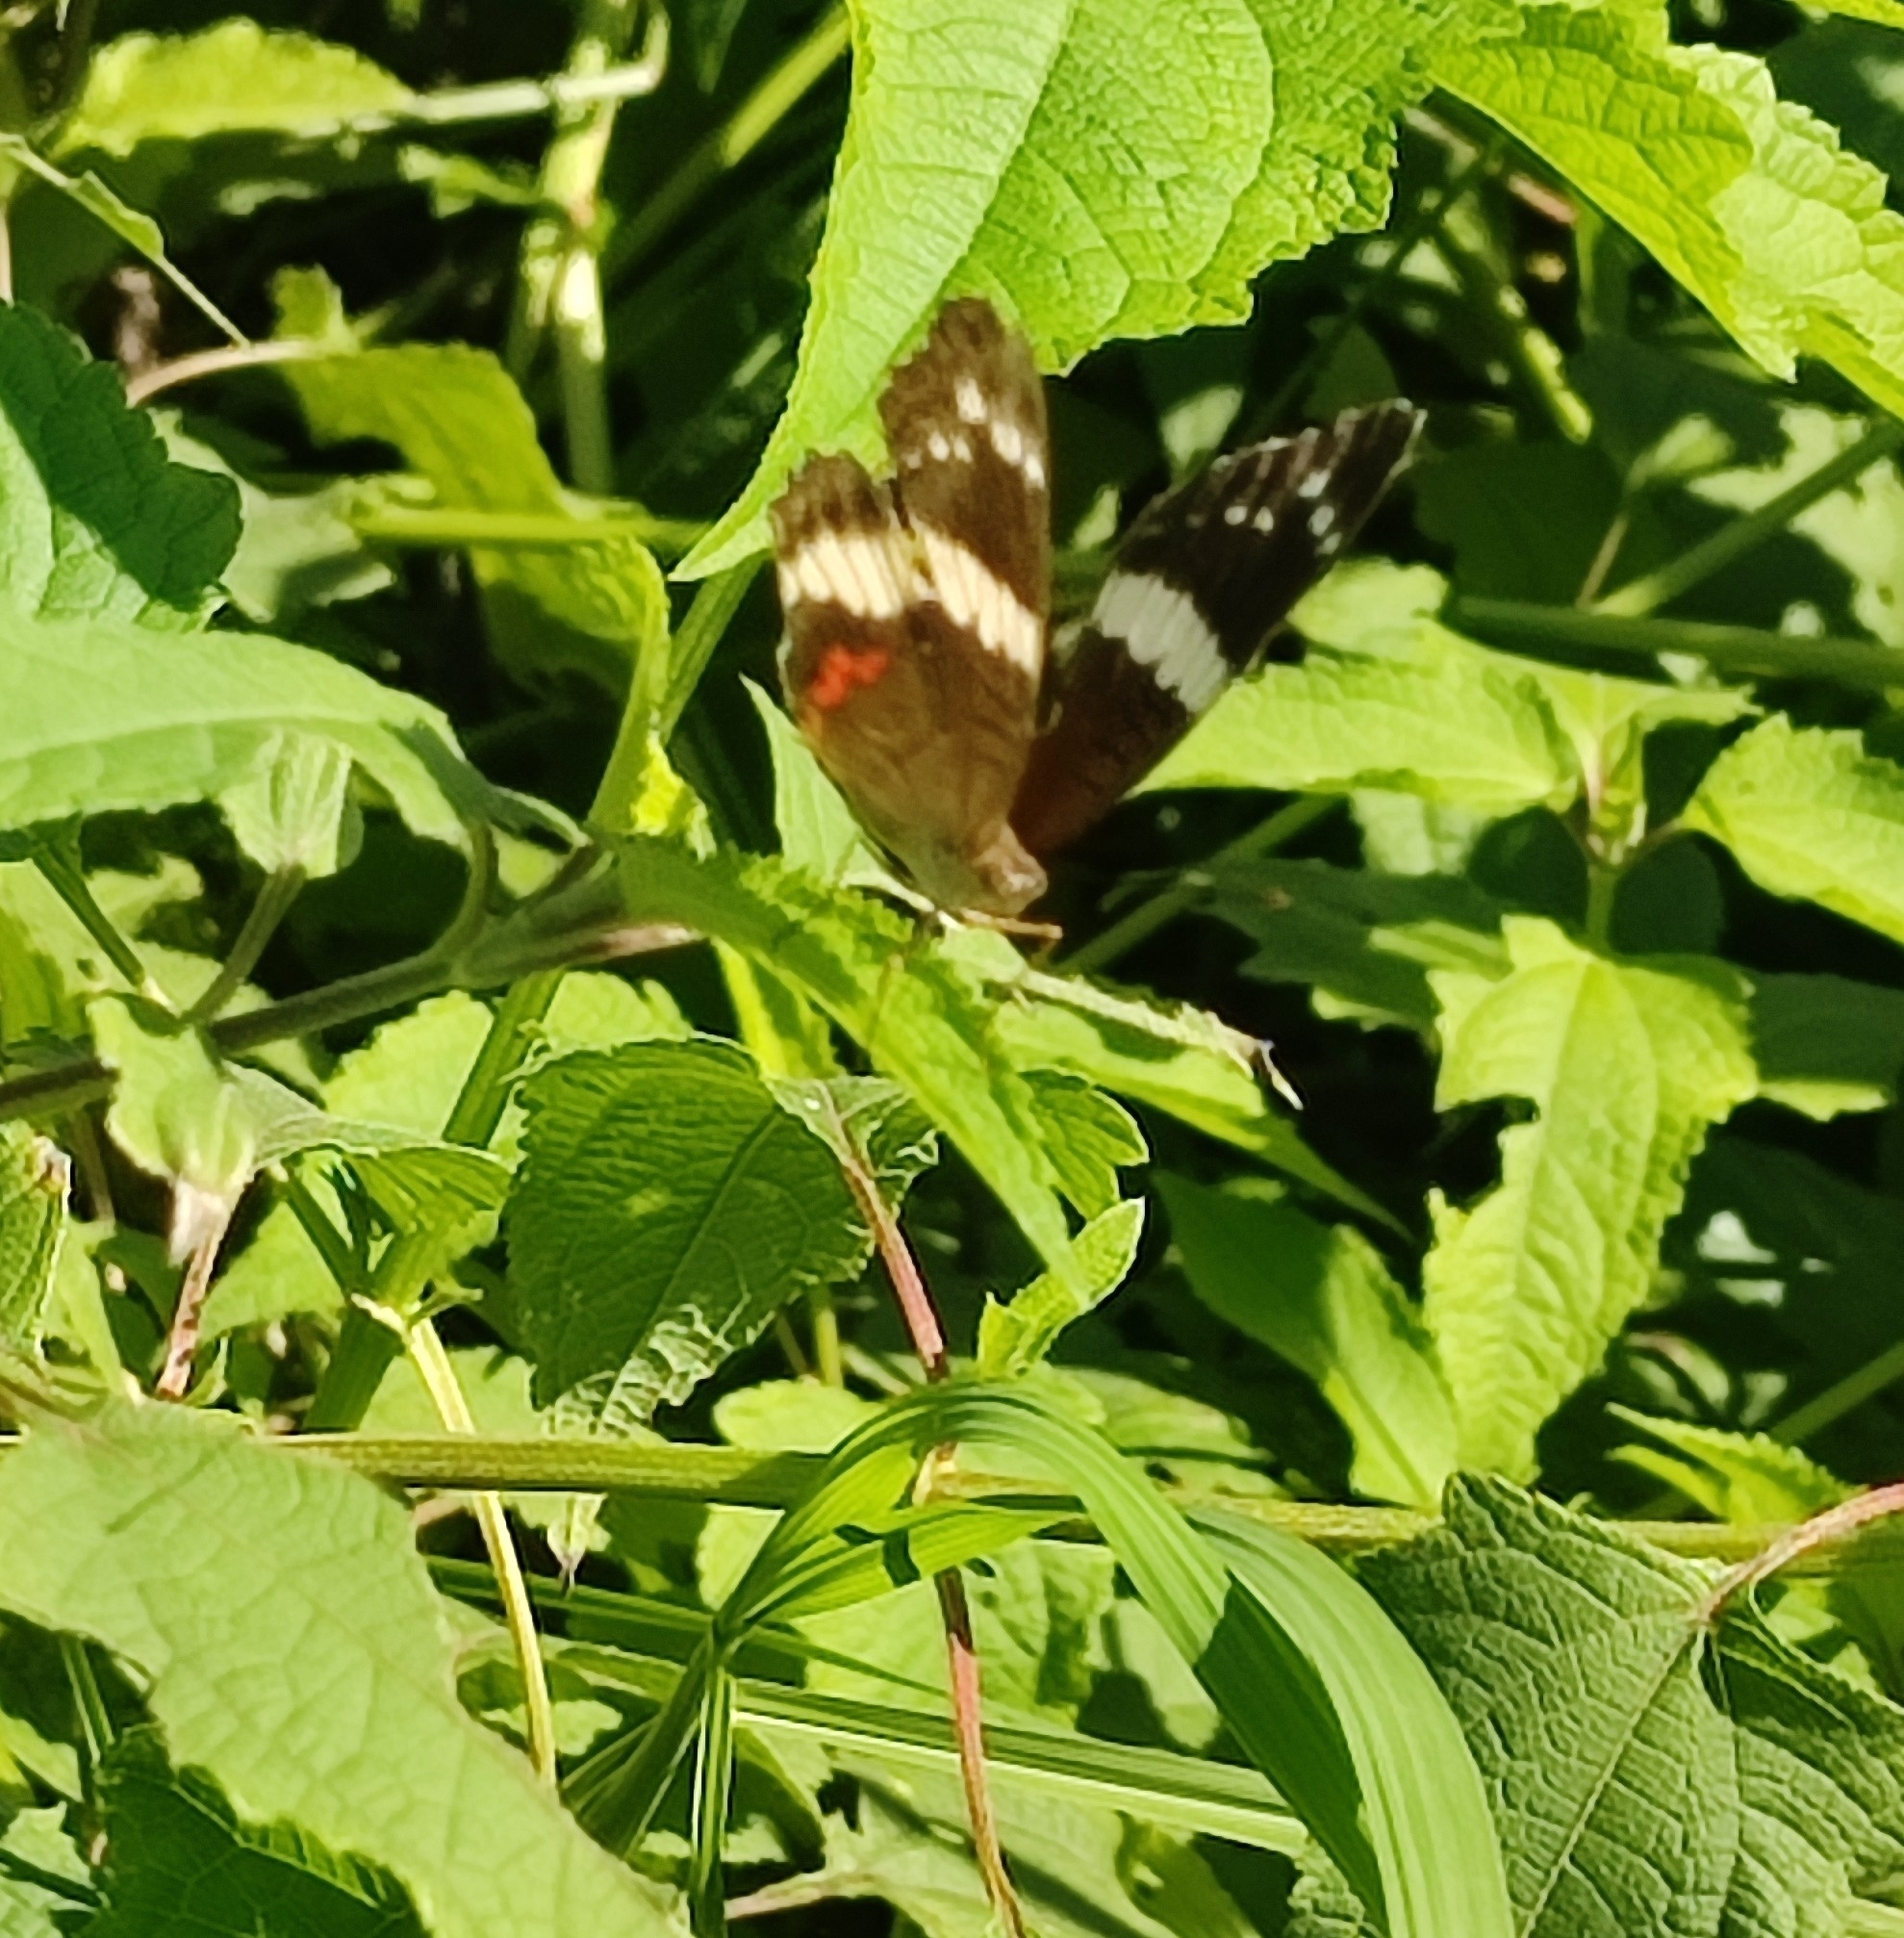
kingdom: Animalia
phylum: Arthropoda
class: Insecta
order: Lepidoptera
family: Nymphalidae
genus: Anartia
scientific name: Anartia fatima
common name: Banded peacock
